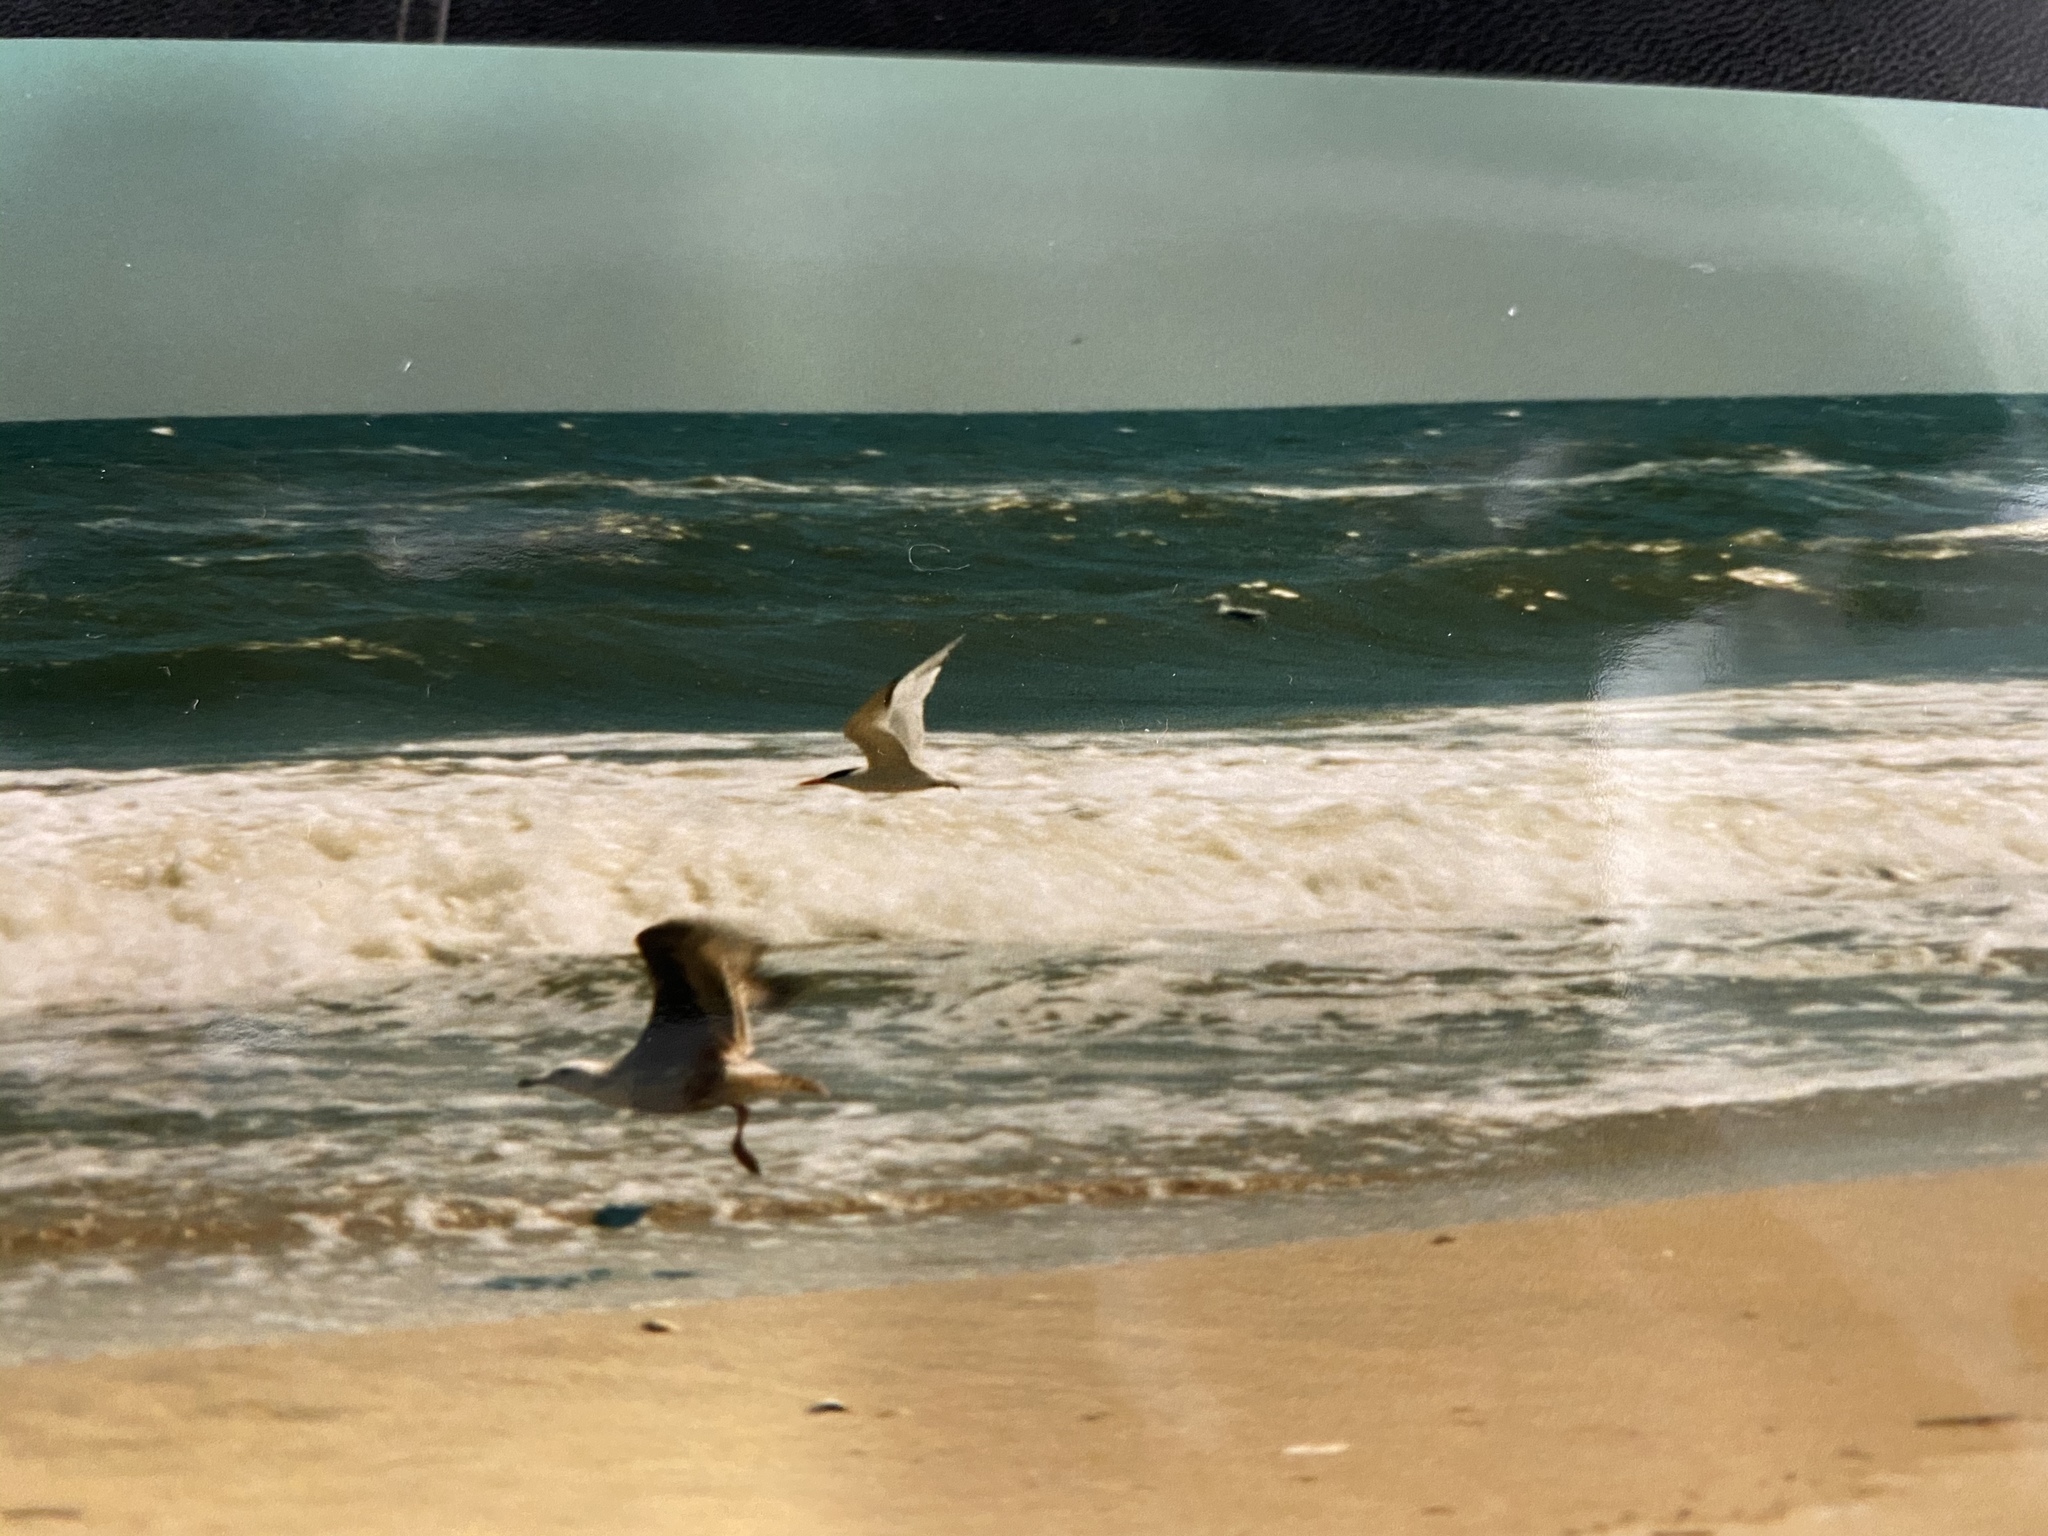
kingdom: Animalia
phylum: Chordata
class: Aves
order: Charadriiformes
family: Laridae
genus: Hydroprogne
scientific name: Hydroprogne caspia
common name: Caspian tern
